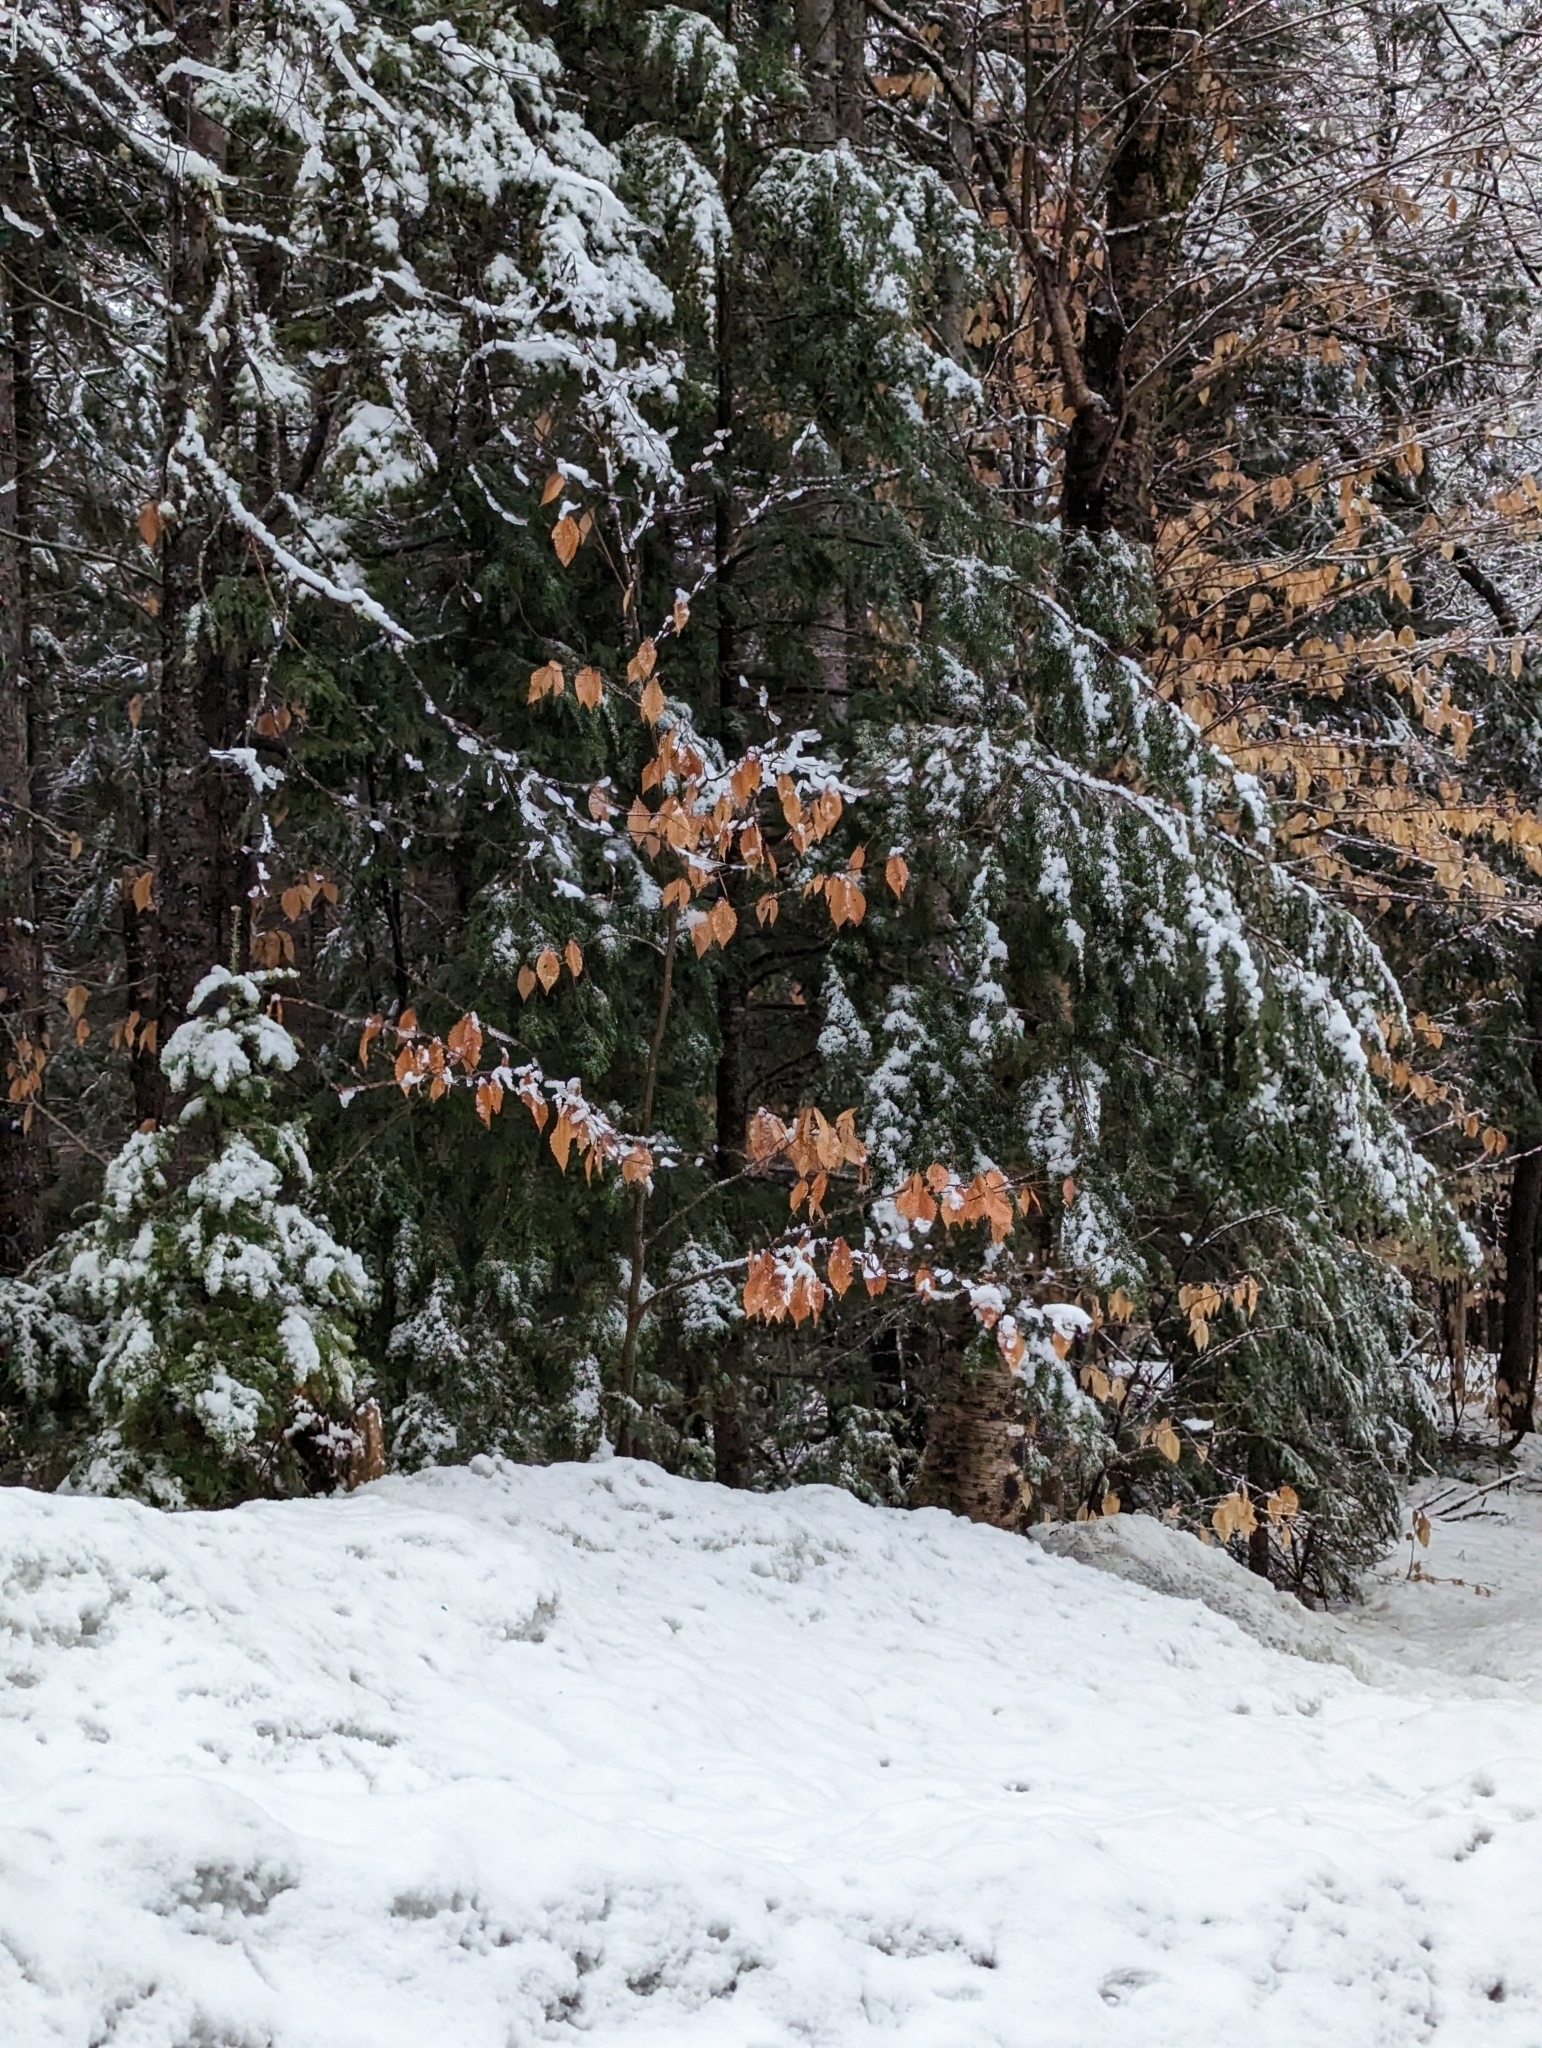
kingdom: Plantae
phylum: Tracheophyta
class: Magnoliopsida
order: Fagales
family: Fagaceae
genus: Fagus
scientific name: Fagus grandifolia
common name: American beech
